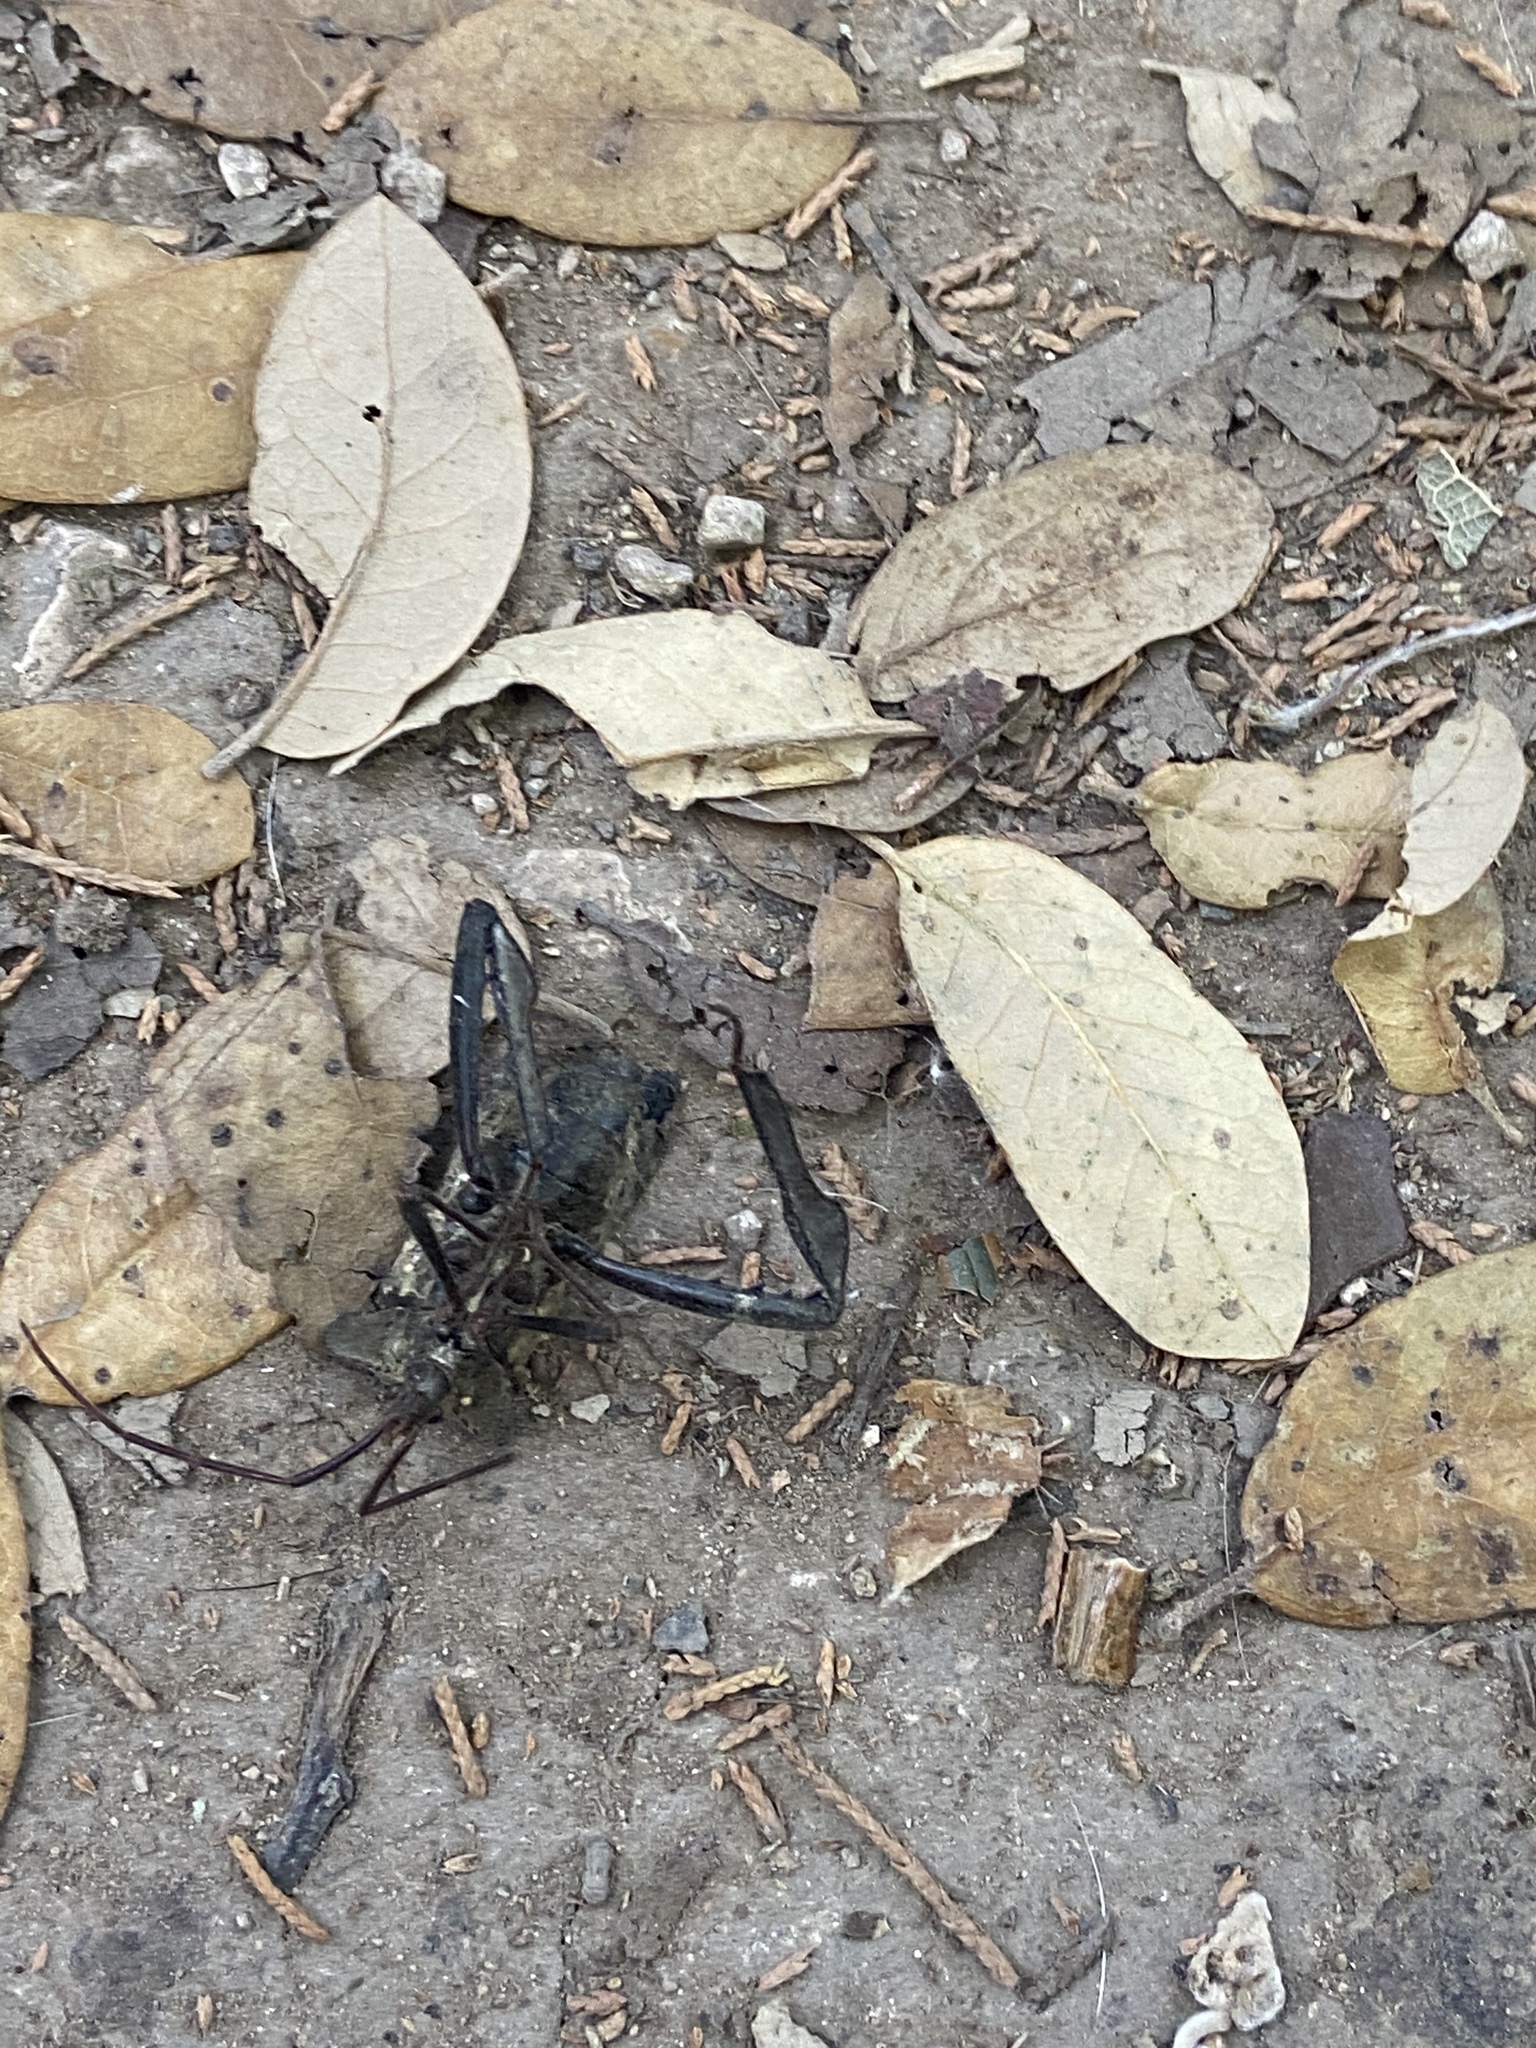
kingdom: Animalia
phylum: Arthropoda
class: Insecta
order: Hemiptera
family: Coreidae
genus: Acanthocephala
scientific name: Acanthocephala terminalis
